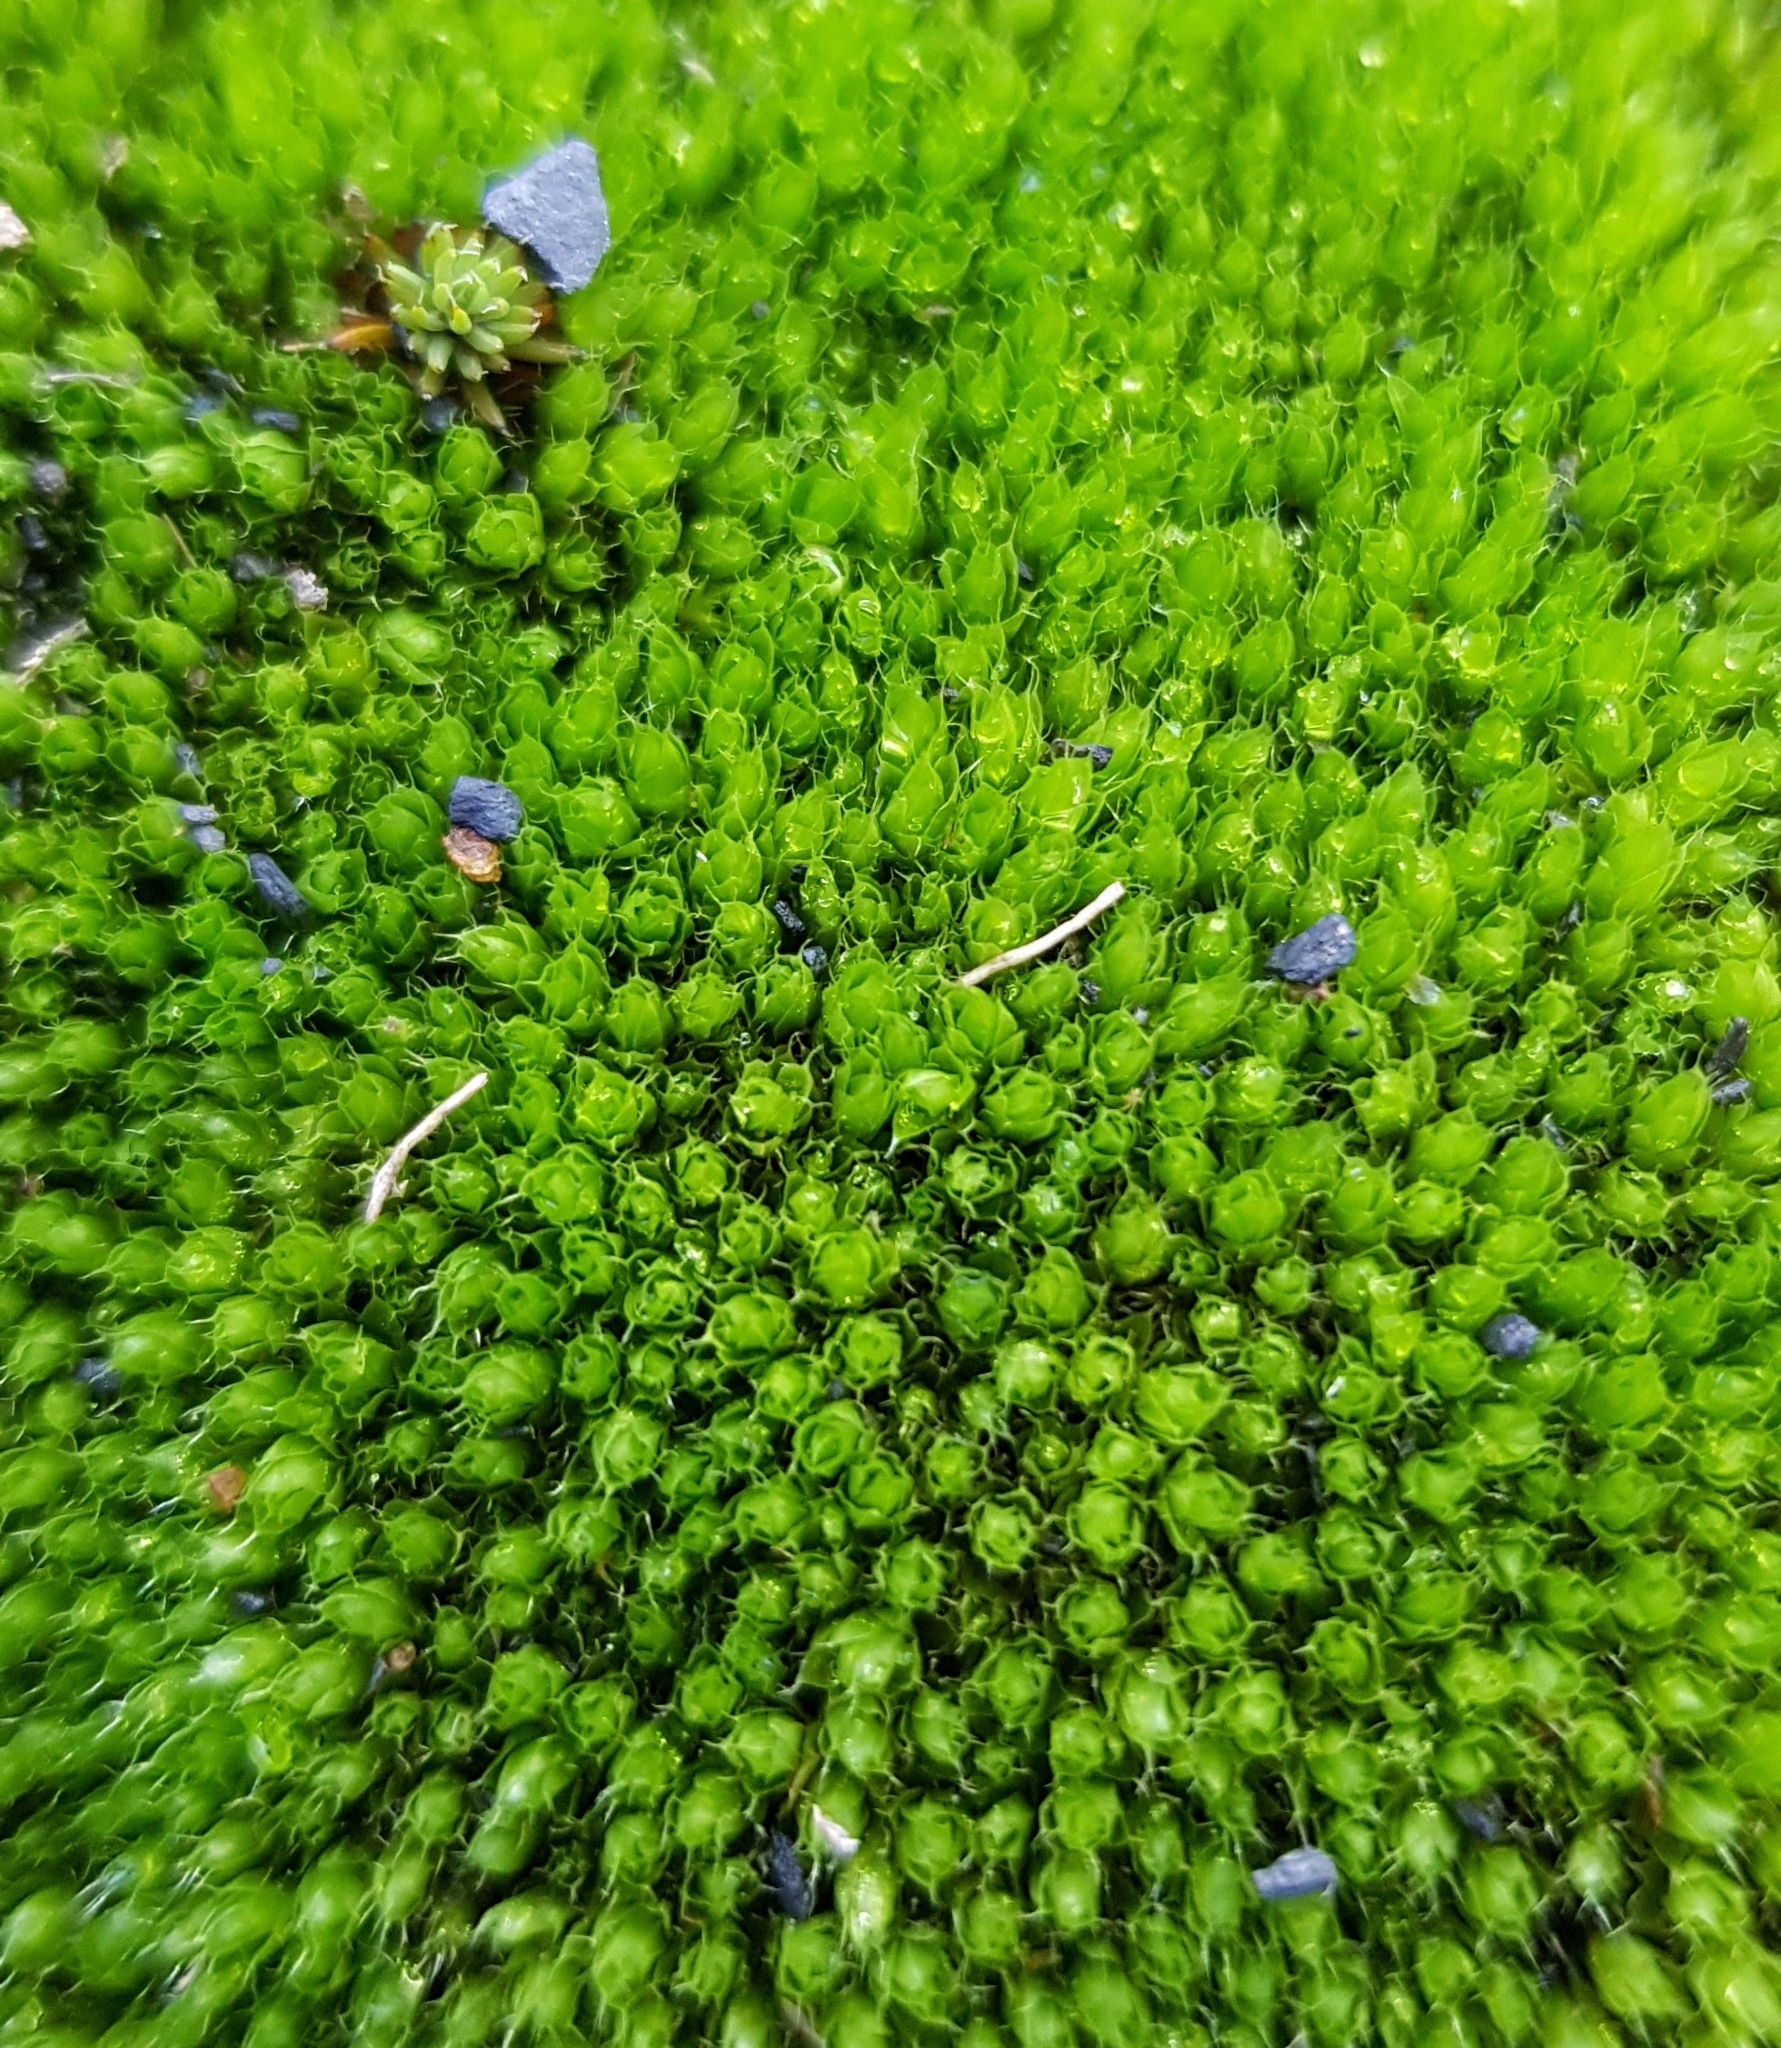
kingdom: Plantae
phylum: Bryophyta
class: Bryopsida
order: Bryales
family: Bryaceae
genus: Rosulabryum
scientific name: Rosulabryum capillare
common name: Capillary thread-moss
